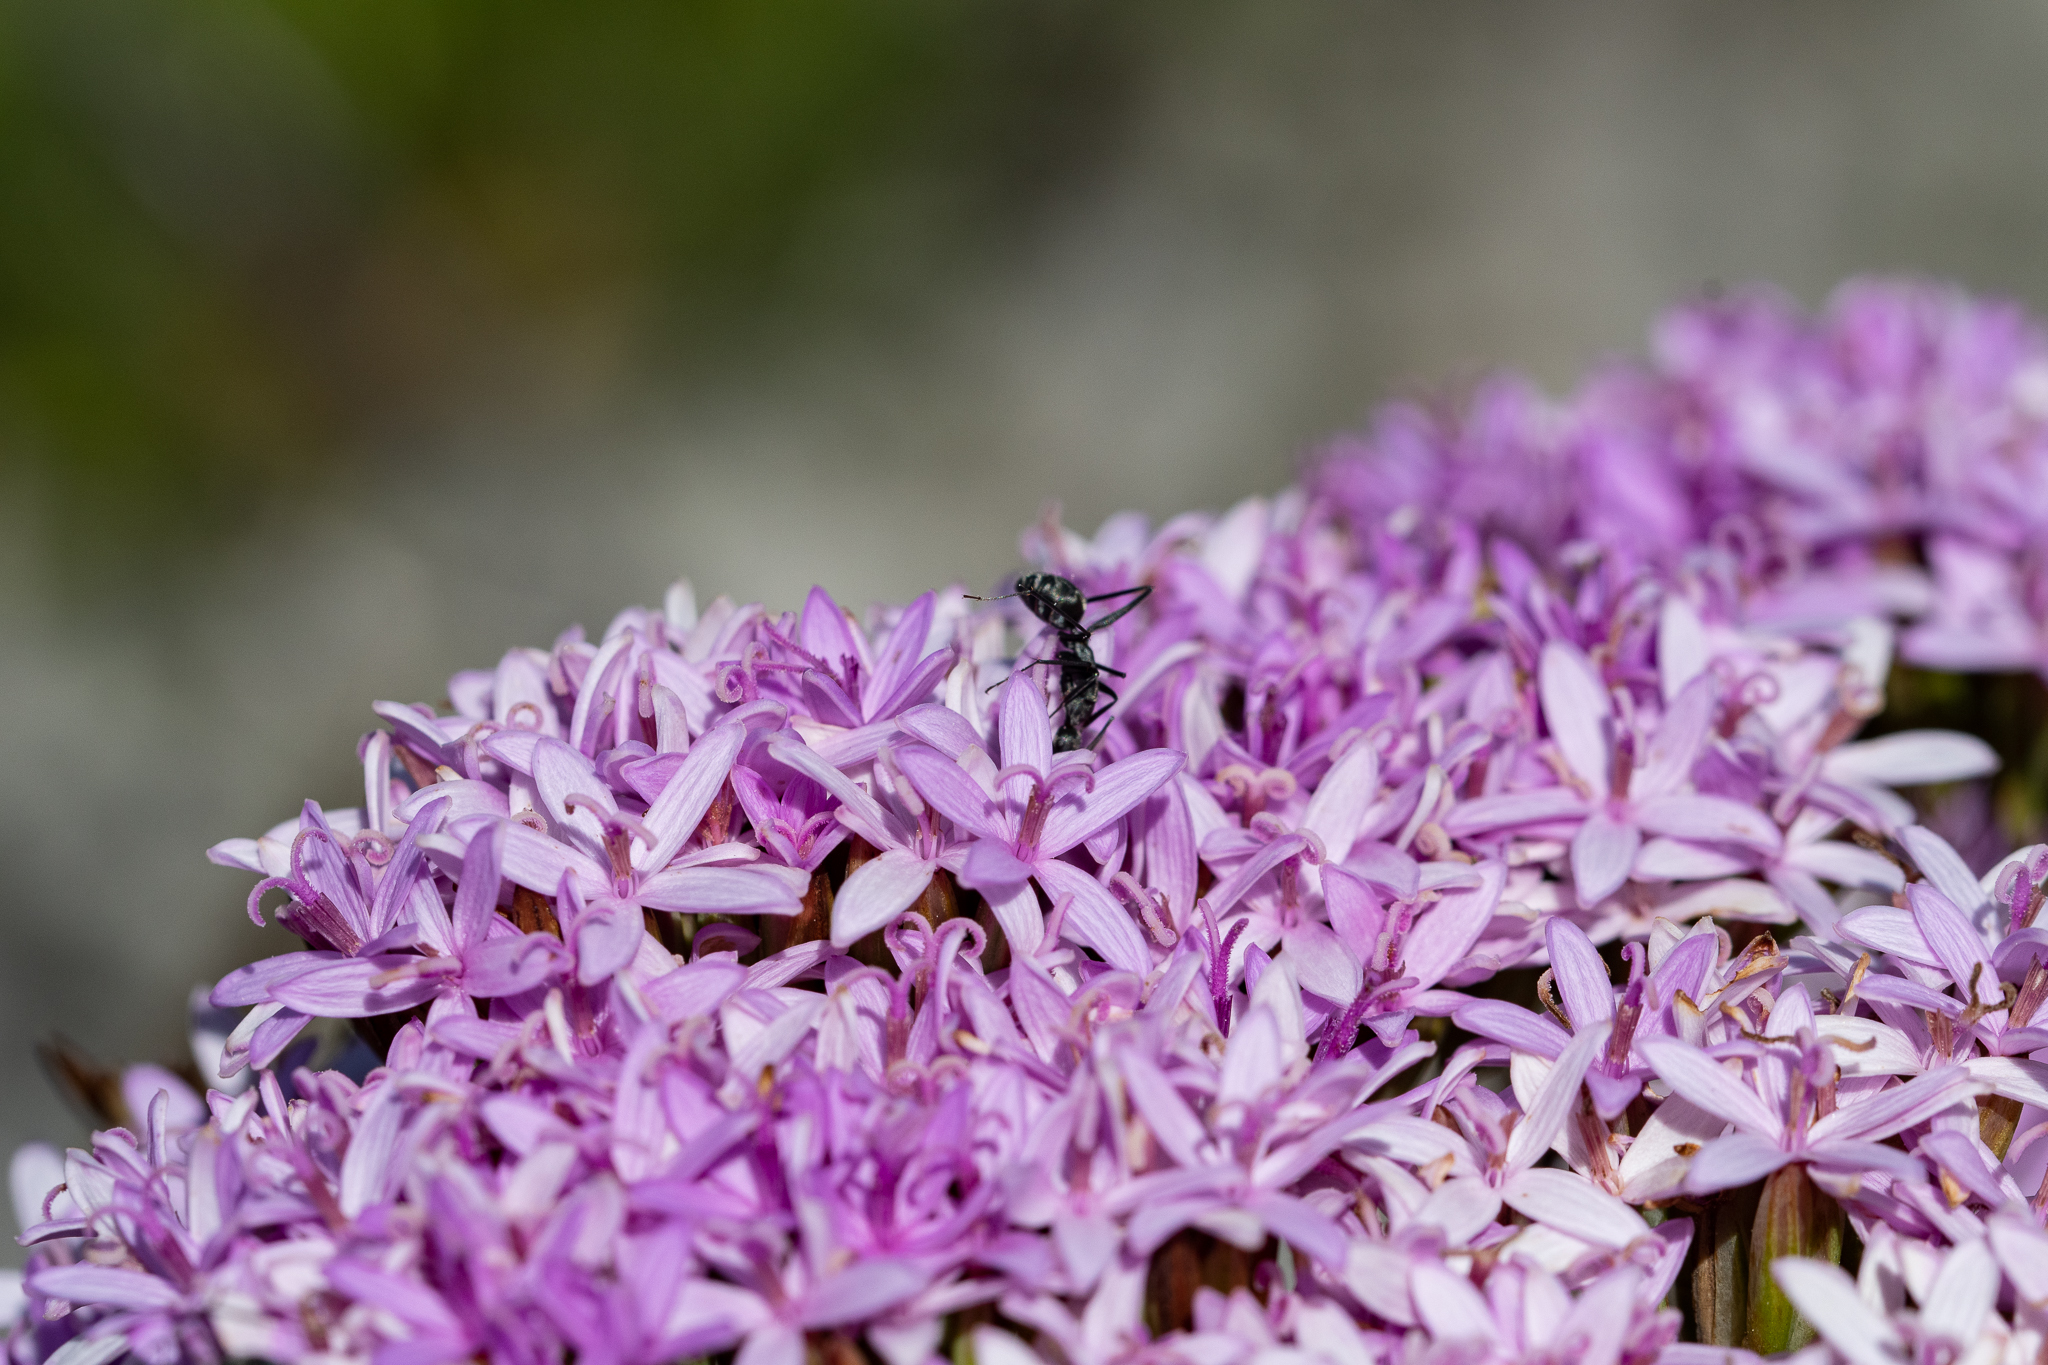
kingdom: Animalia
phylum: Arthropoda
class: Insecta
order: Hymenoptera
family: Formicidae
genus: Camponotus
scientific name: Camponotus angusticeps
